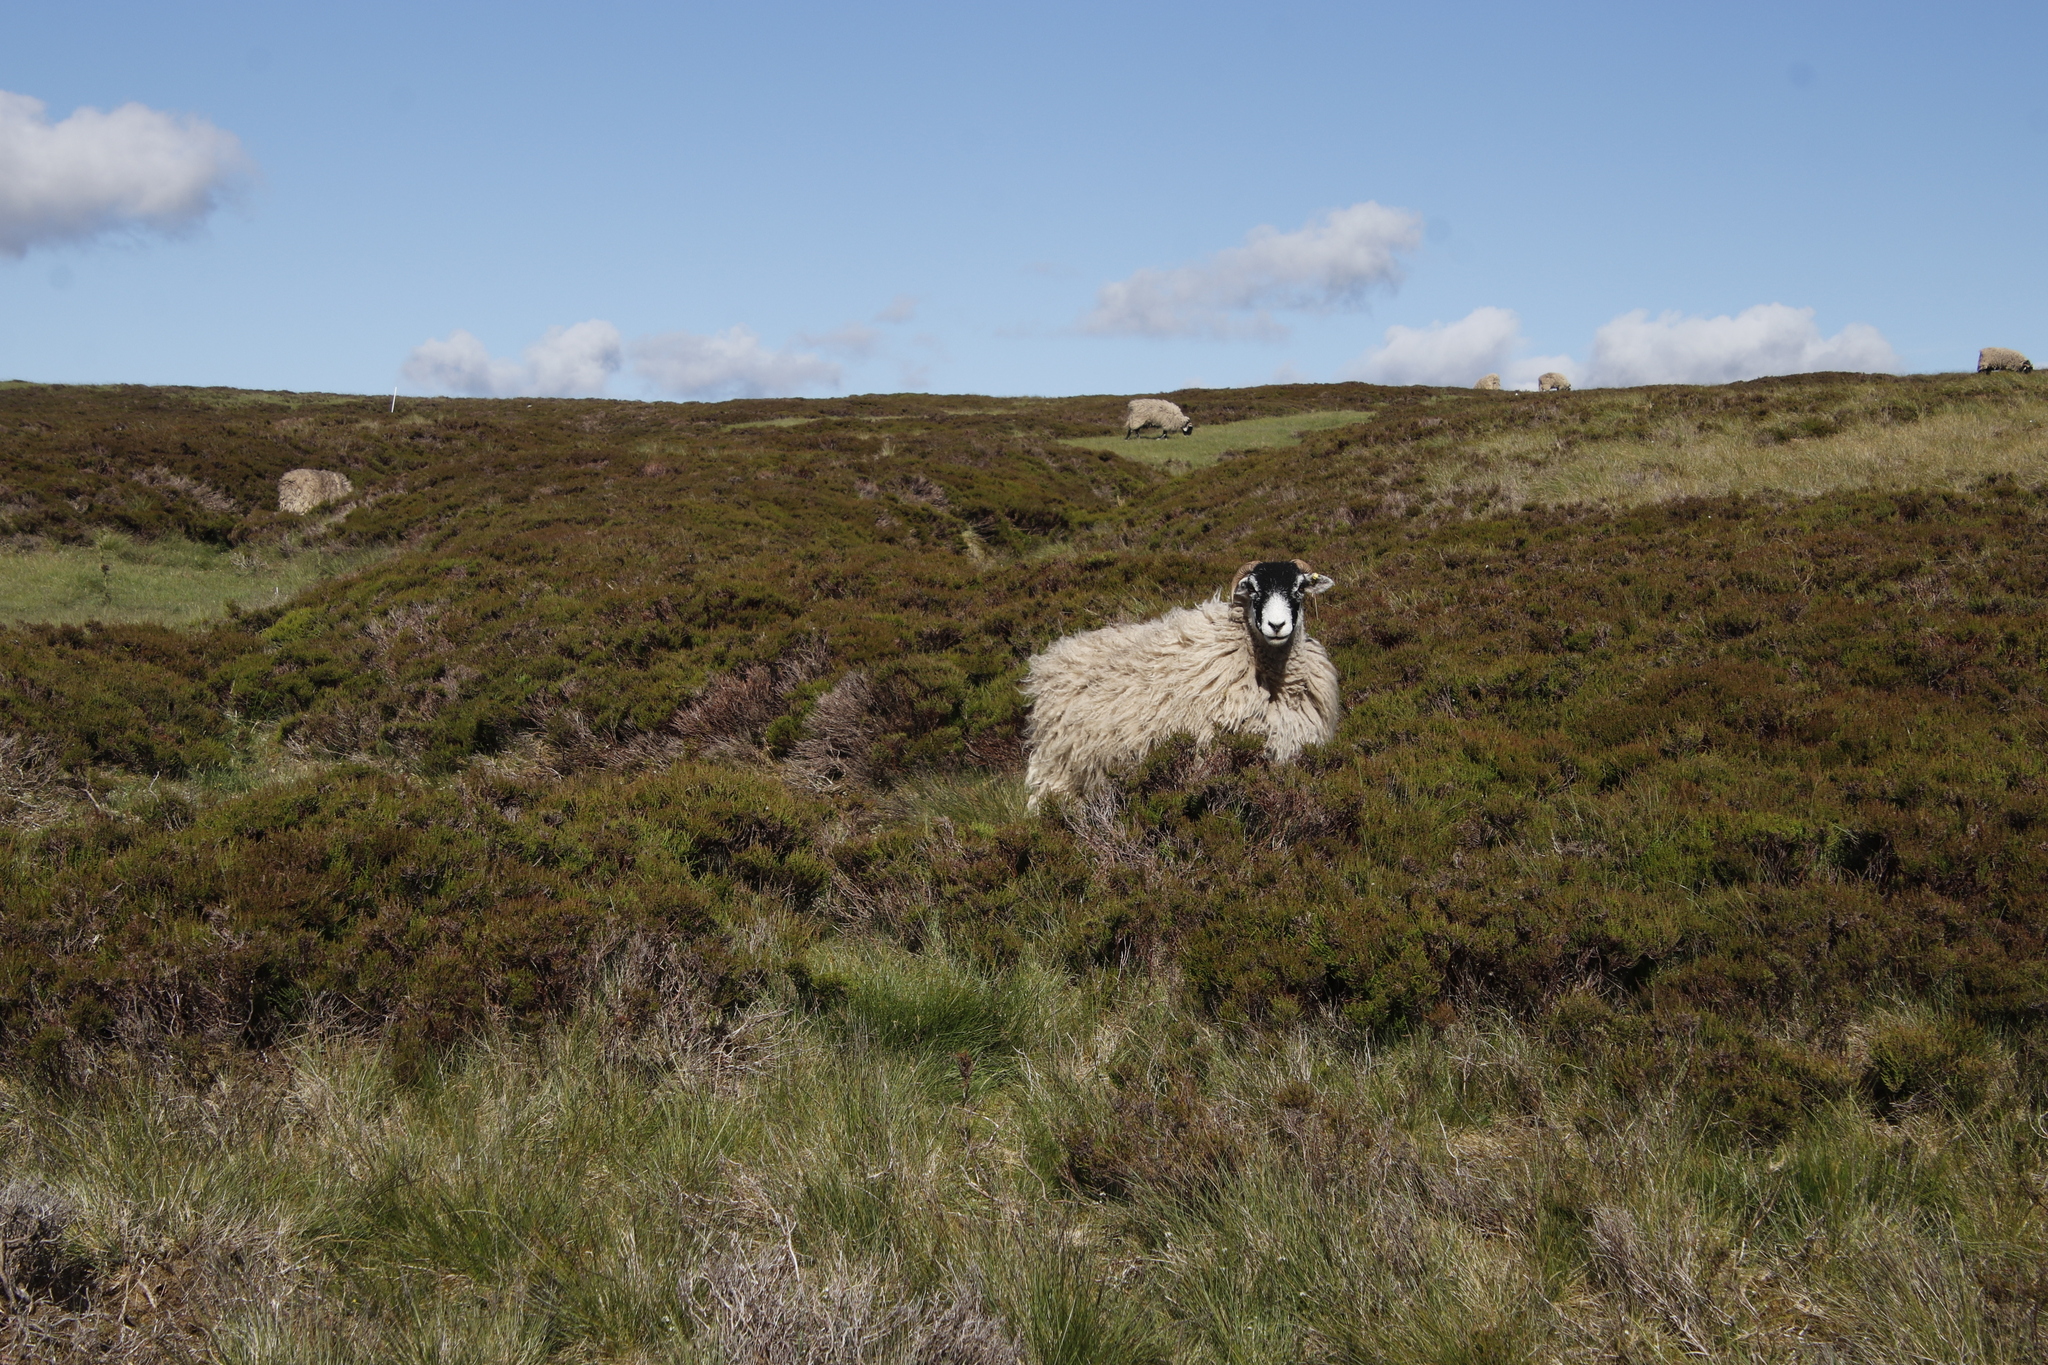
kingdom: Plantae
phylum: Tracheophyta
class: Magnoliopsida
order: Ericales
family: Ericaceae
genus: Calluna
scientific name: Calluna vulgaris
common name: Heather
